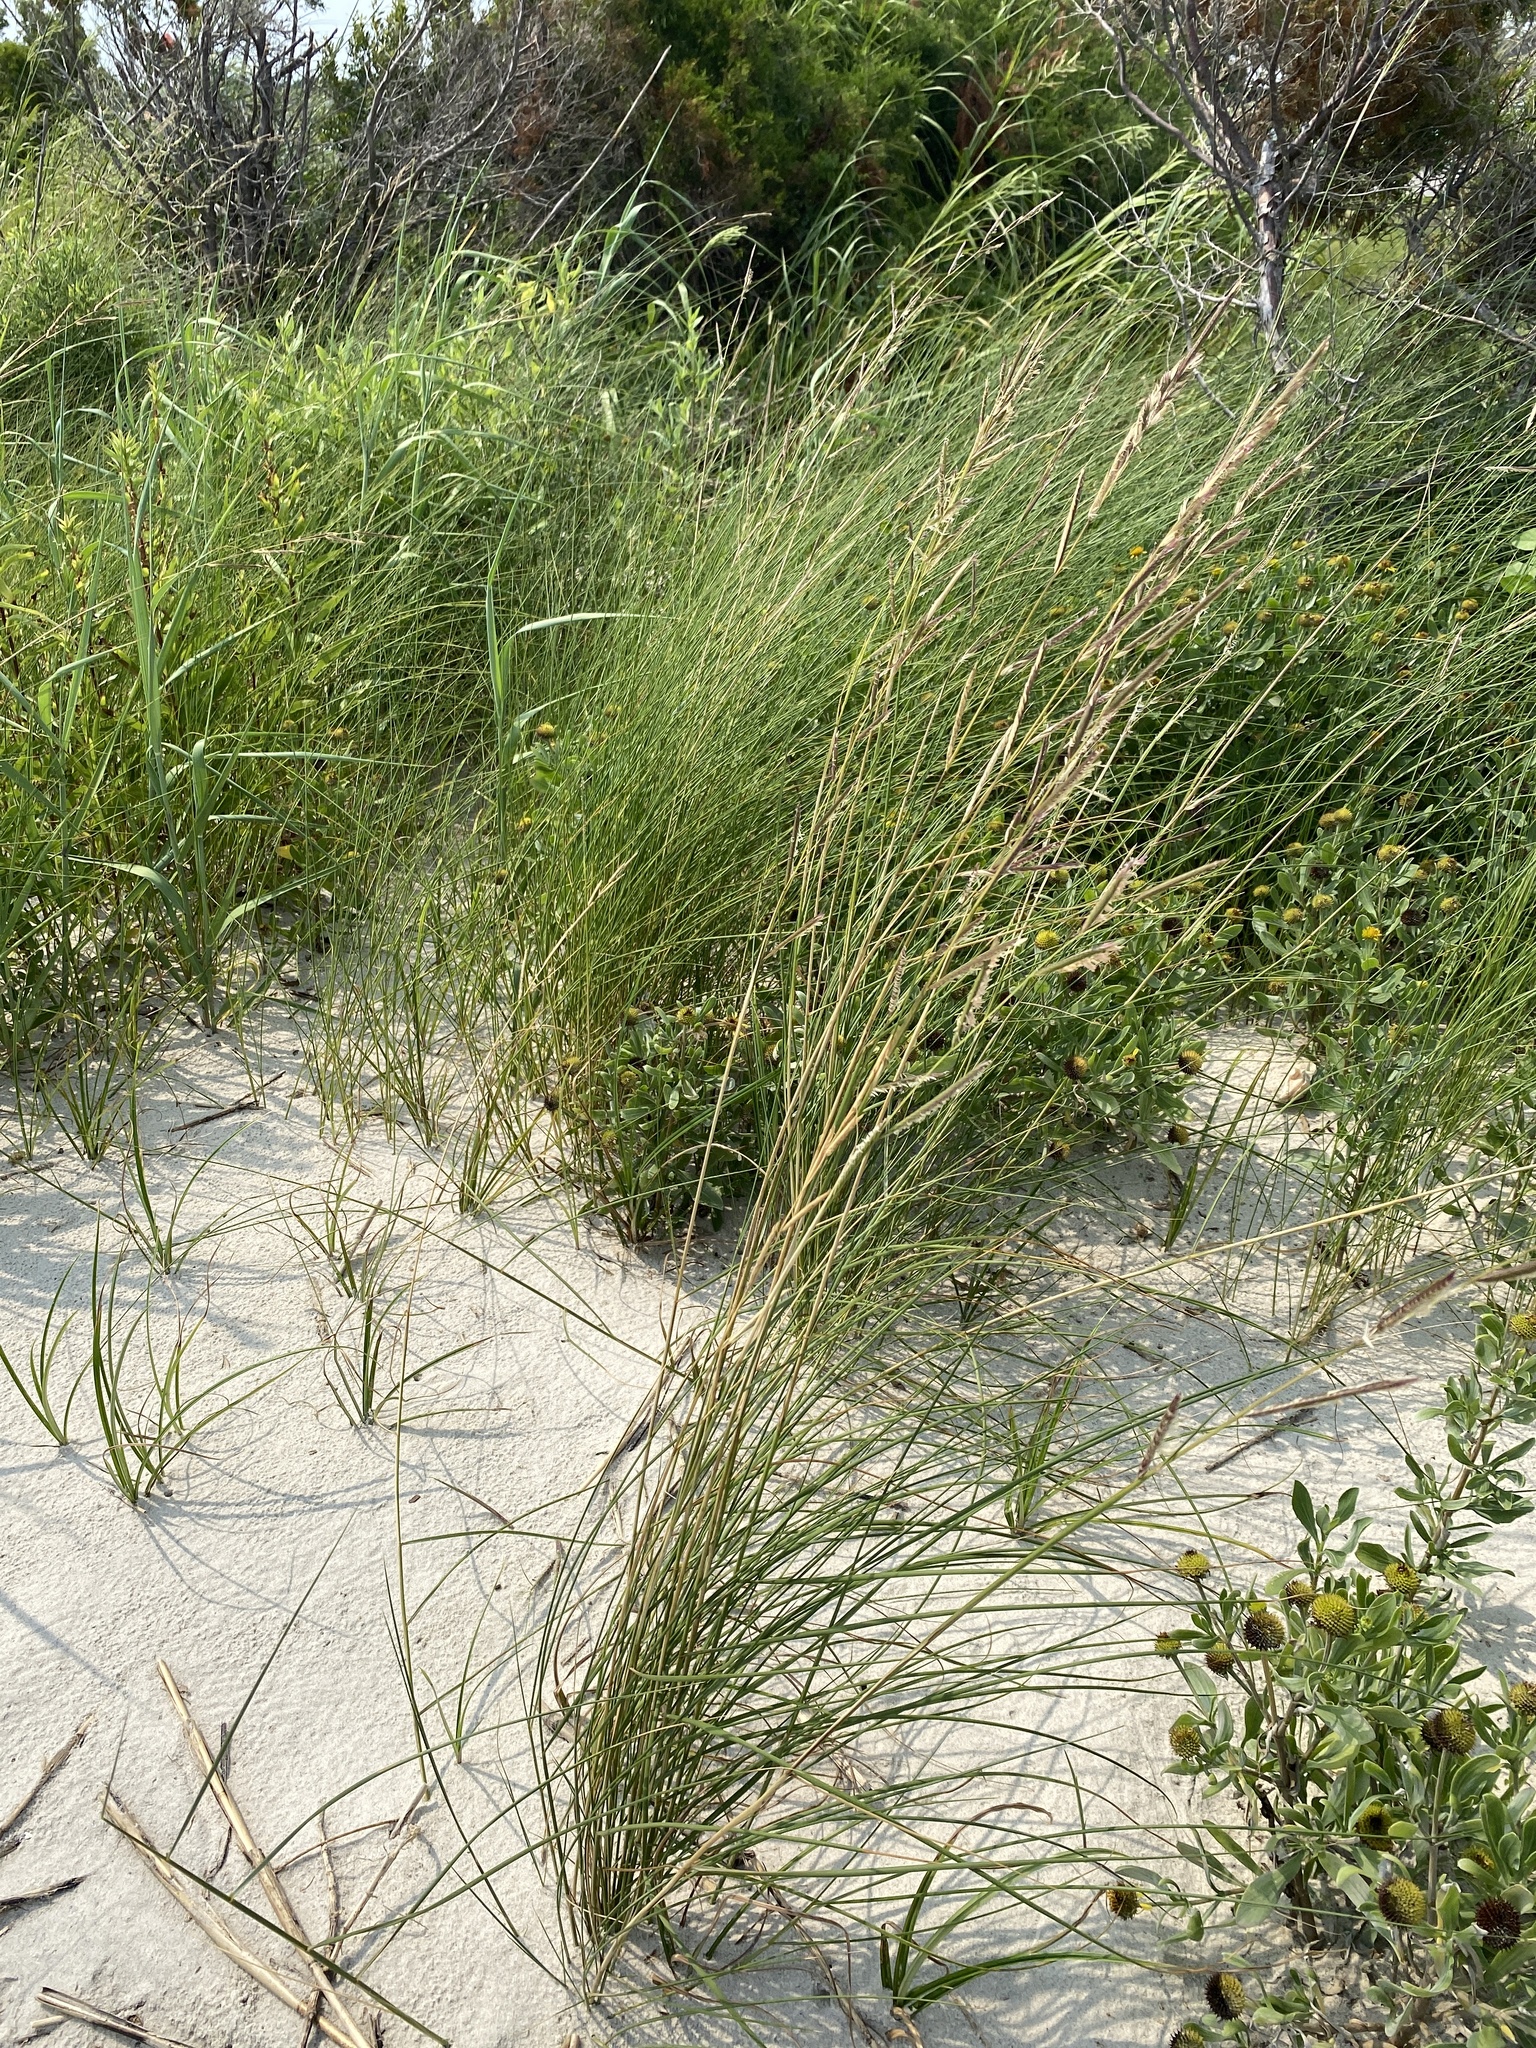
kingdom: Plantae
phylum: Tracheophyta
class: Liliopsida
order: Poales
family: Poaceae
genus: Sporobolus
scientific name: Sporobolus pumilus
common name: Highwater grass
